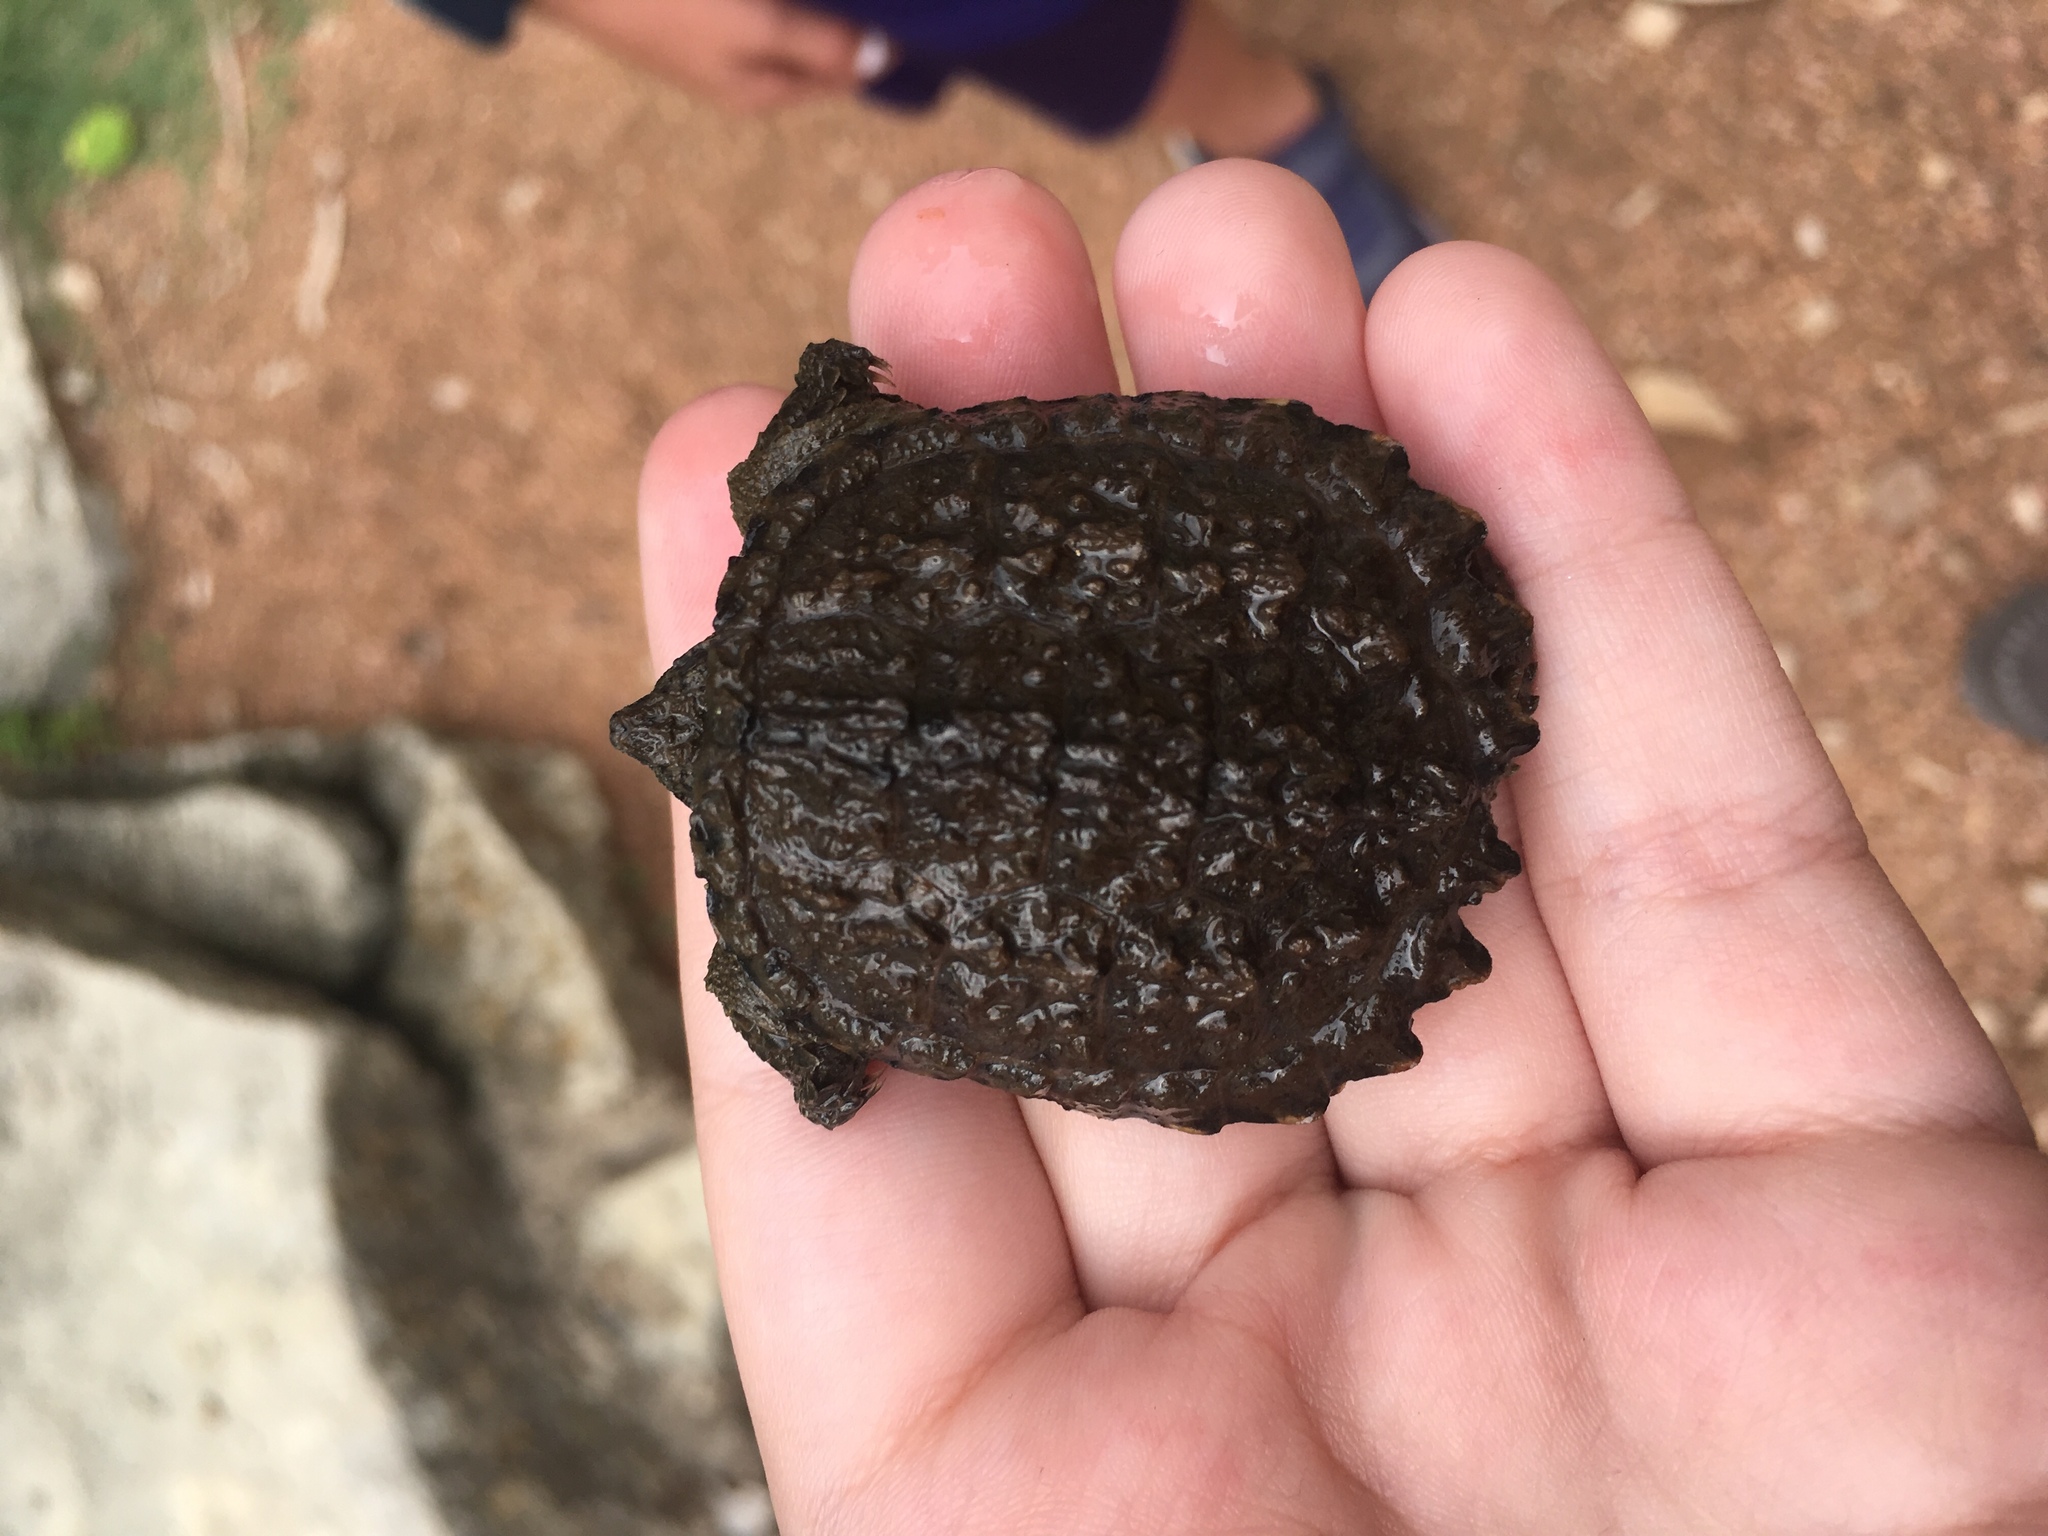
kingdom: Animalia
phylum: Chordata
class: Testudines
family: Chelydridae
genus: Chelydra
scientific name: Chelydra serpentina
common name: Common snapping turtle
